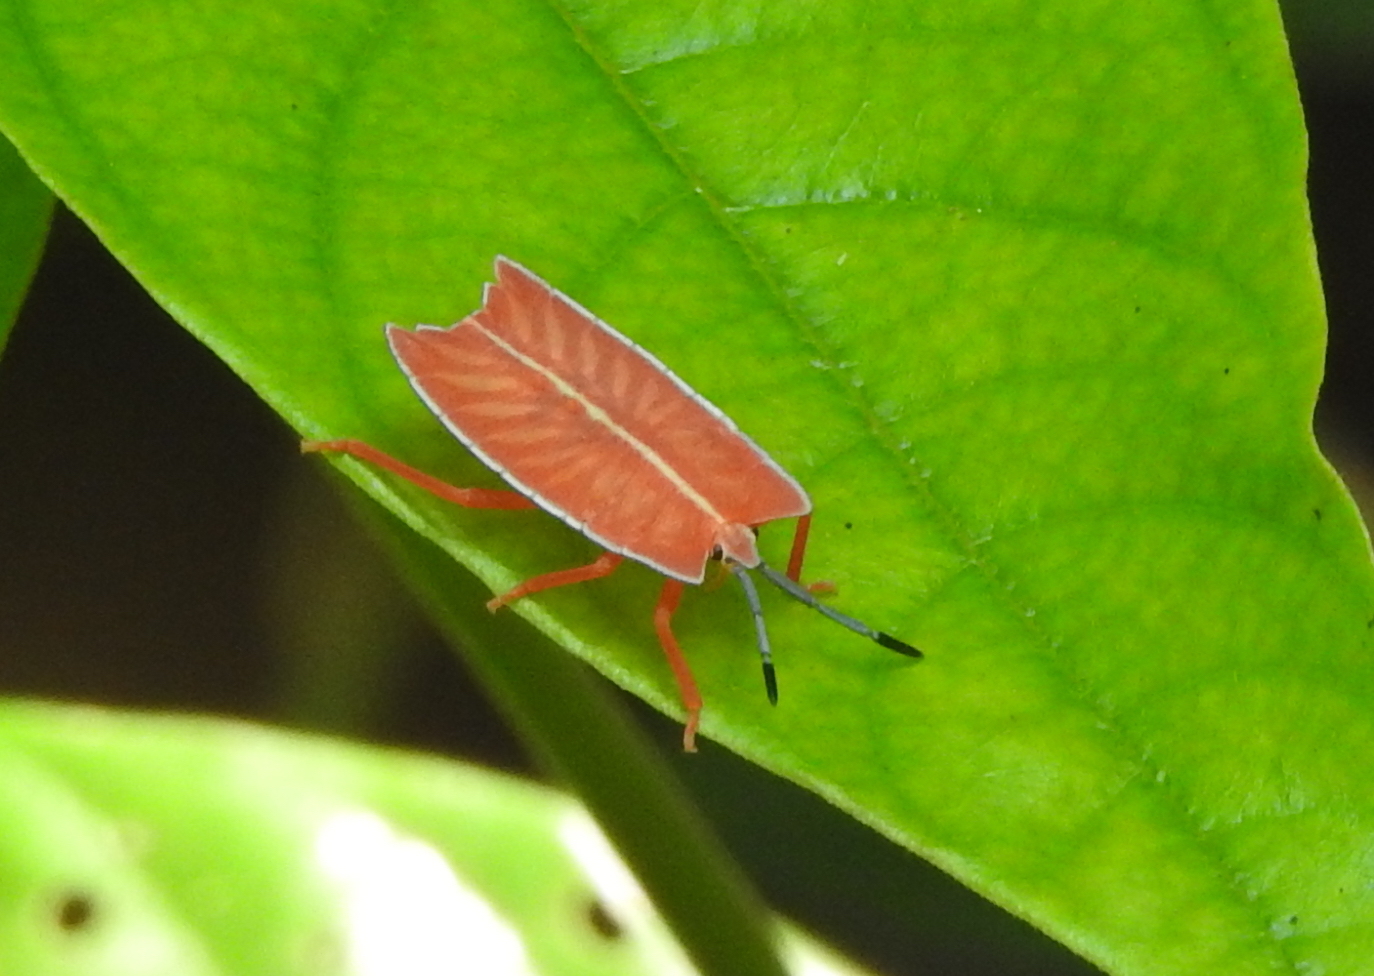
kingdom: Animalia
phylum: Arthropoda
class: Insecta
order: Hemiptera
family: Tessaratomidae
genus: Pycanum
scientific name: Pycanum alternatum
